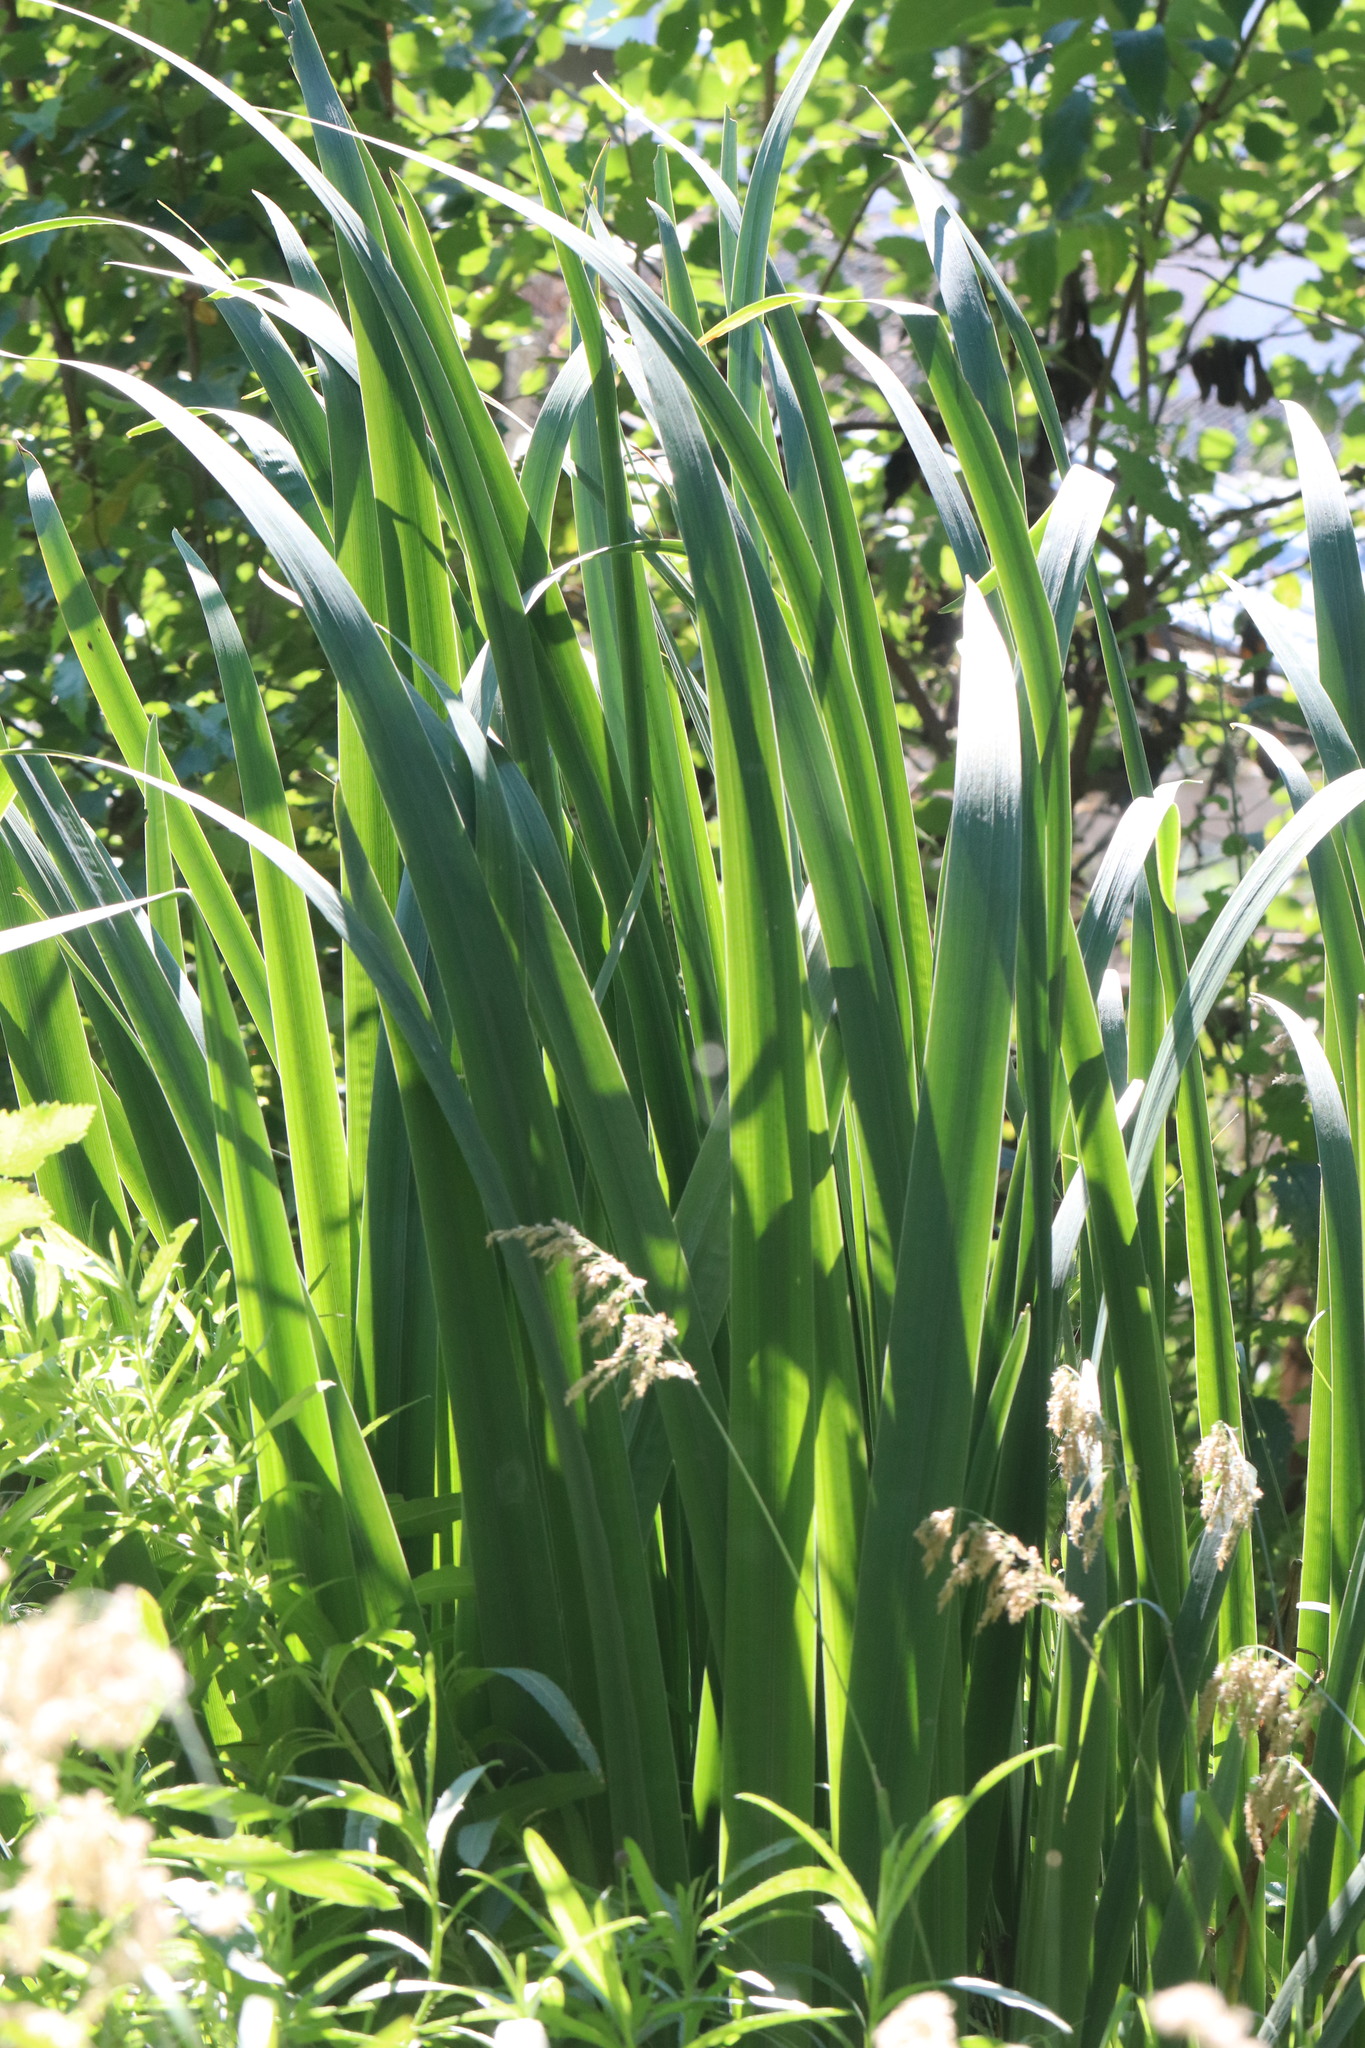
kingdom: Plantae
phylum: Tracheophyta
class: Liliopsida
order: Asparagales
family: Iridaceae
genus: Iris
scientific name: Iris pseudacorus
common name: Yellow flag
